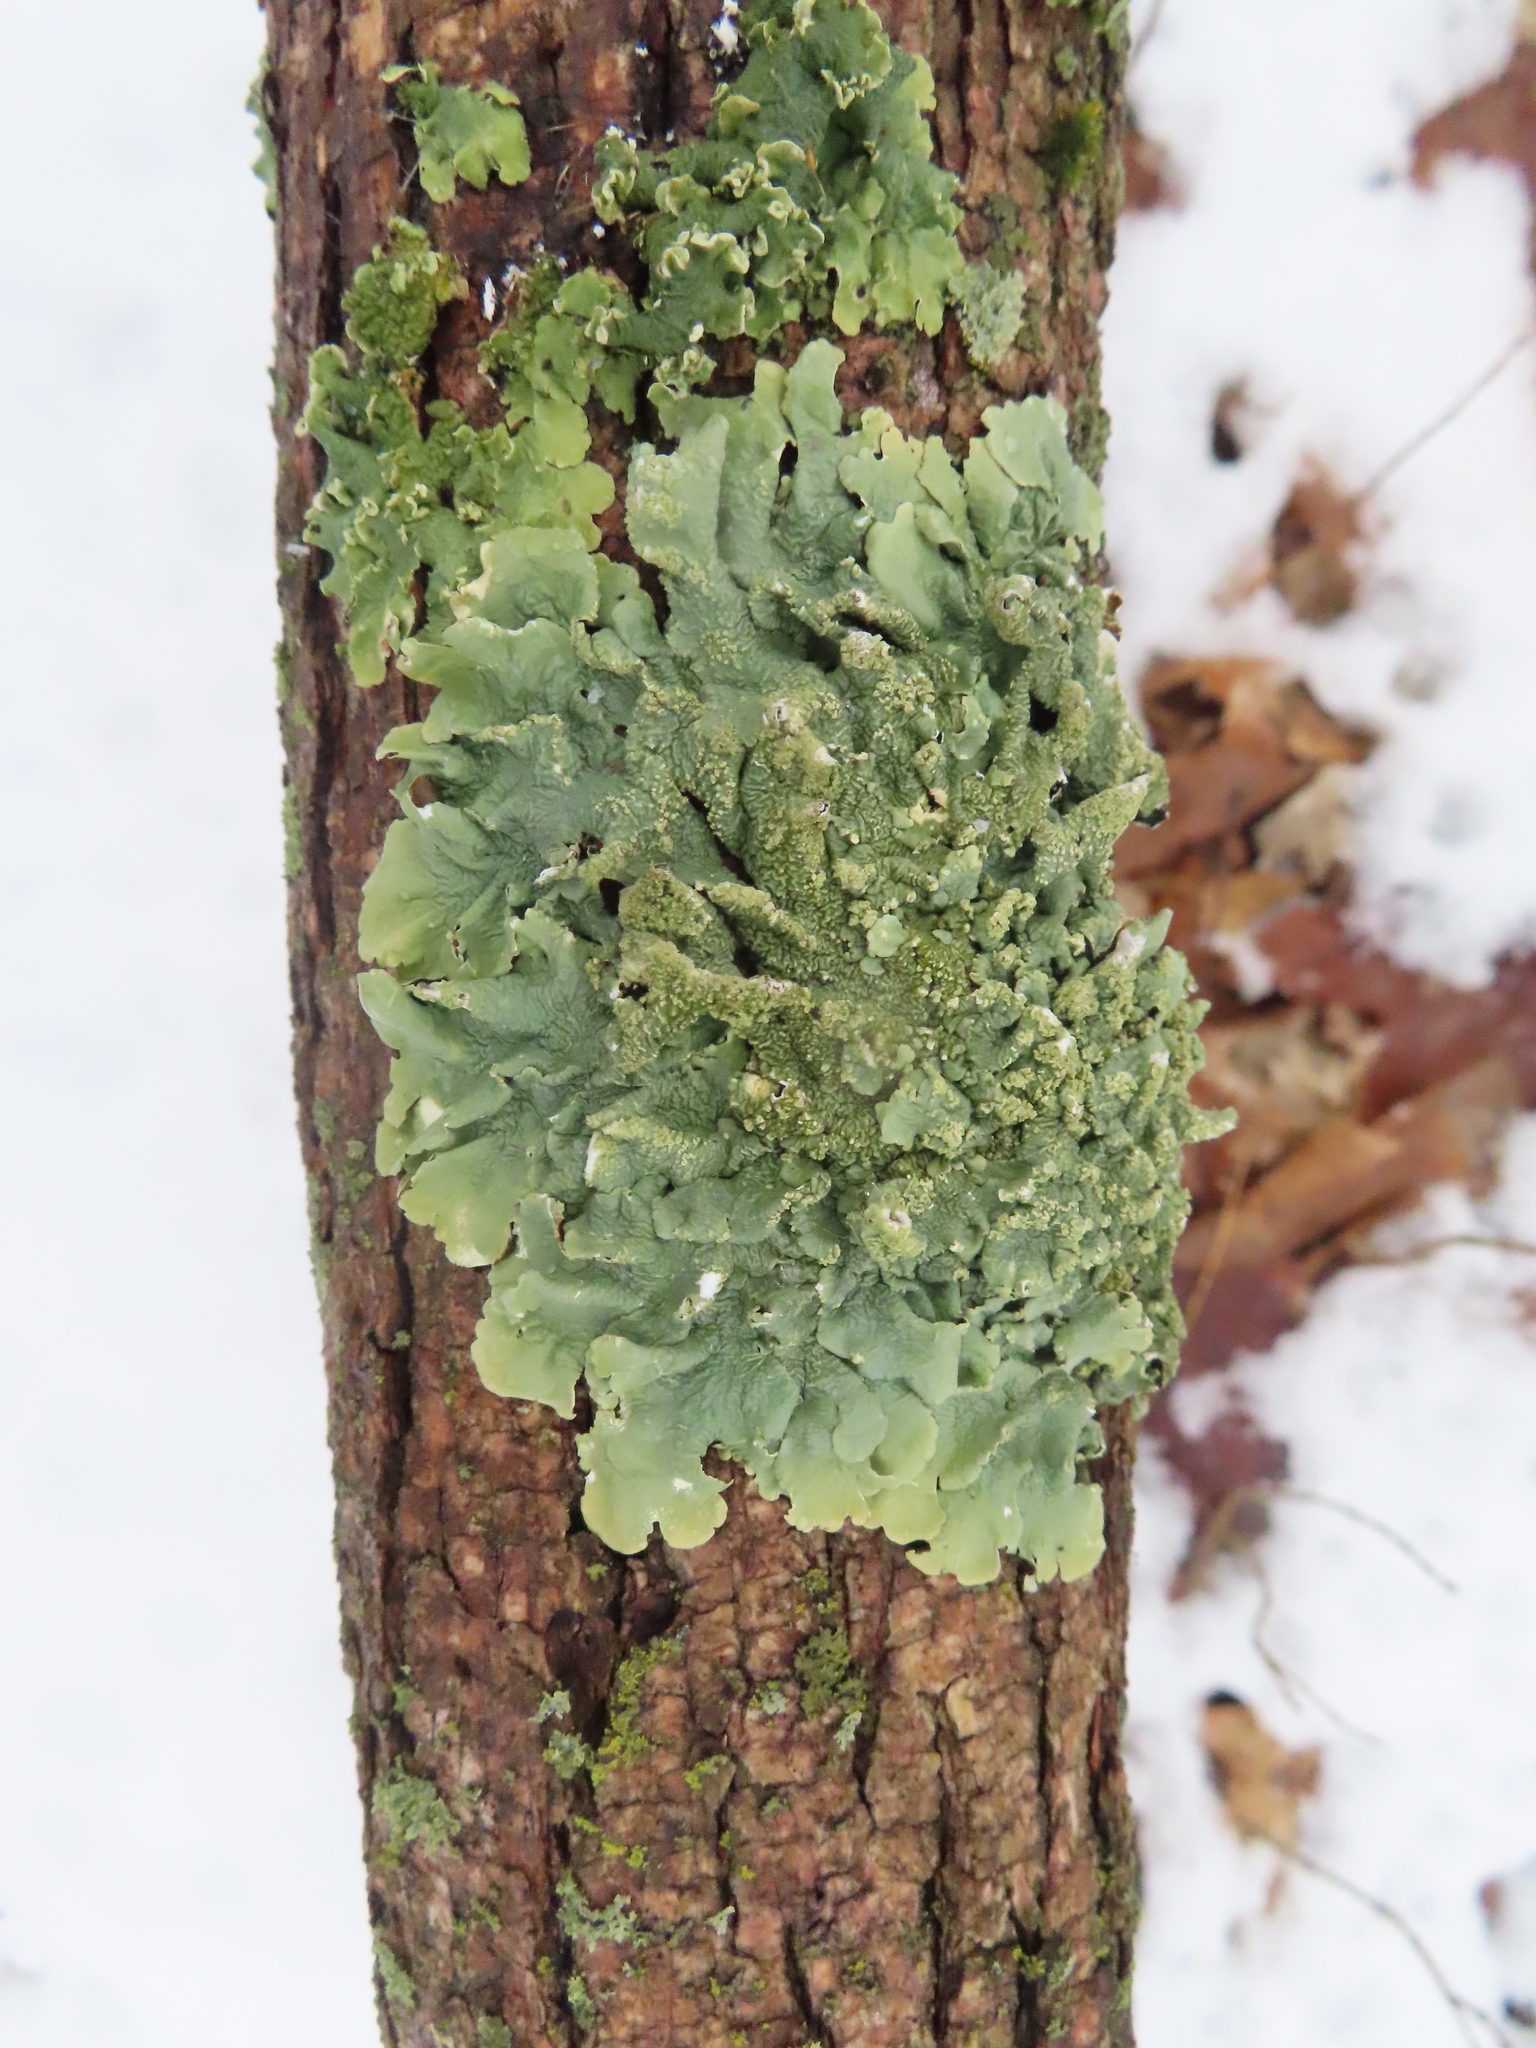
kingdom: Fungi
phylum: Ascomycota
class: Lecanoromycetes
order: Lecanorales
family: Parmeliaceae
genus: Flavoparmelia
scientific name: Flavoparmelia caperata
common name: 40-mile per hour lichen
